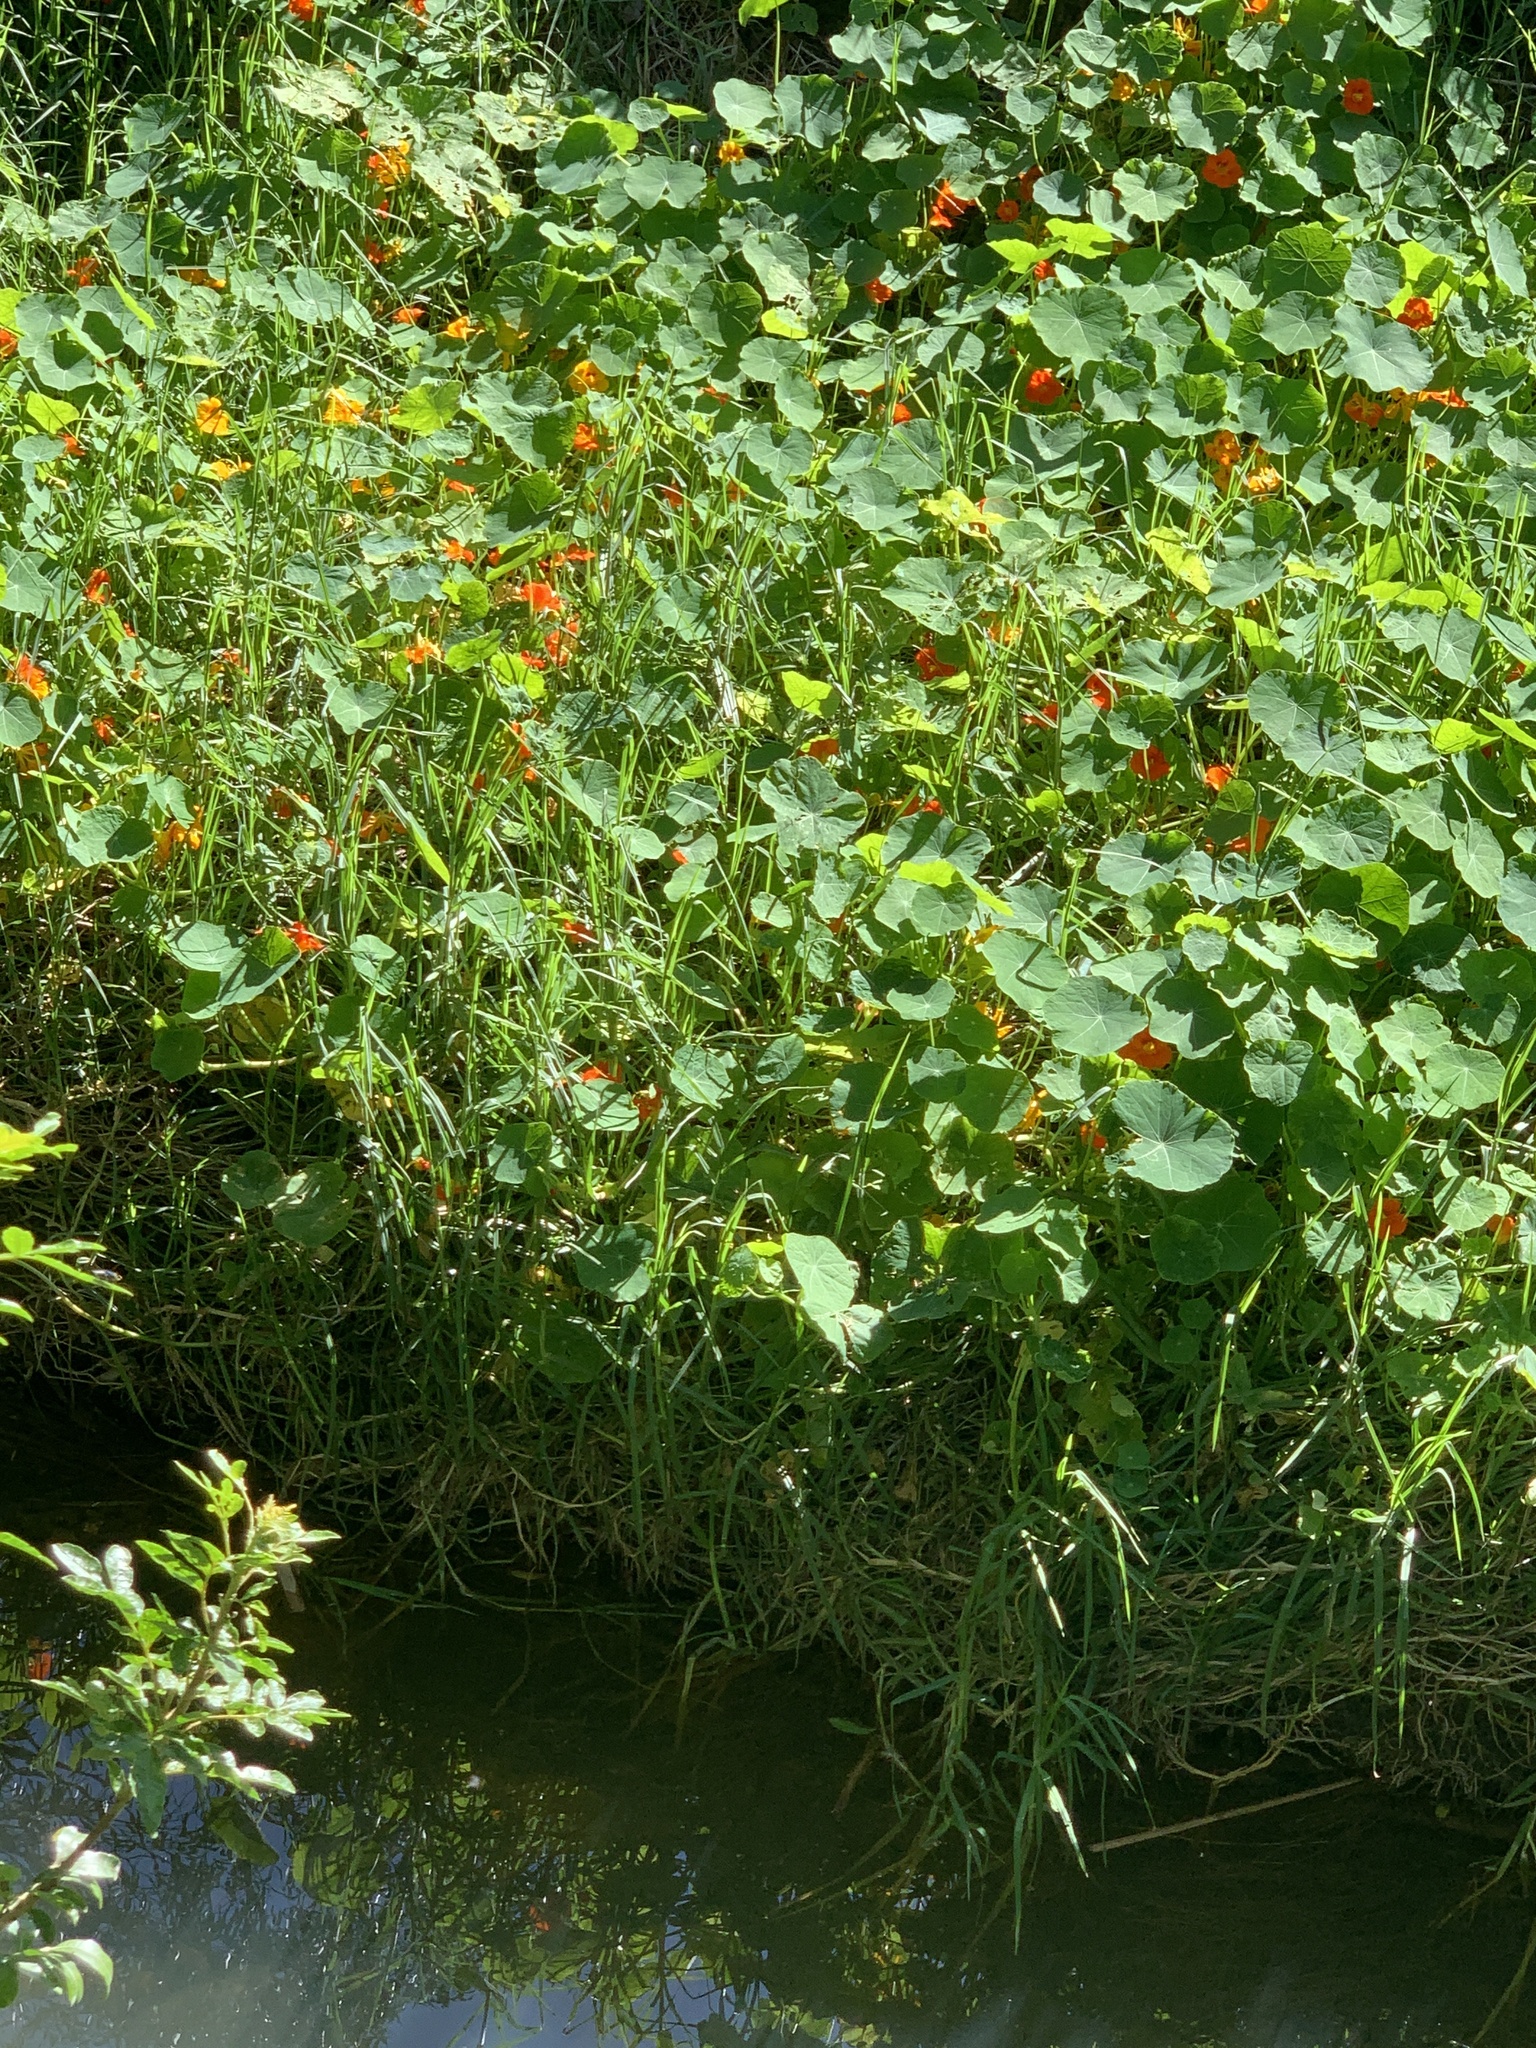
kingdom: Plantae
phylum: Tracheophyta
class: Magnoliopsida
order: Brassicales
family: Tropaeolaceae
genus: Tropaeolum
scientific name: Tropaeolum majus
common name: Nasturtium
